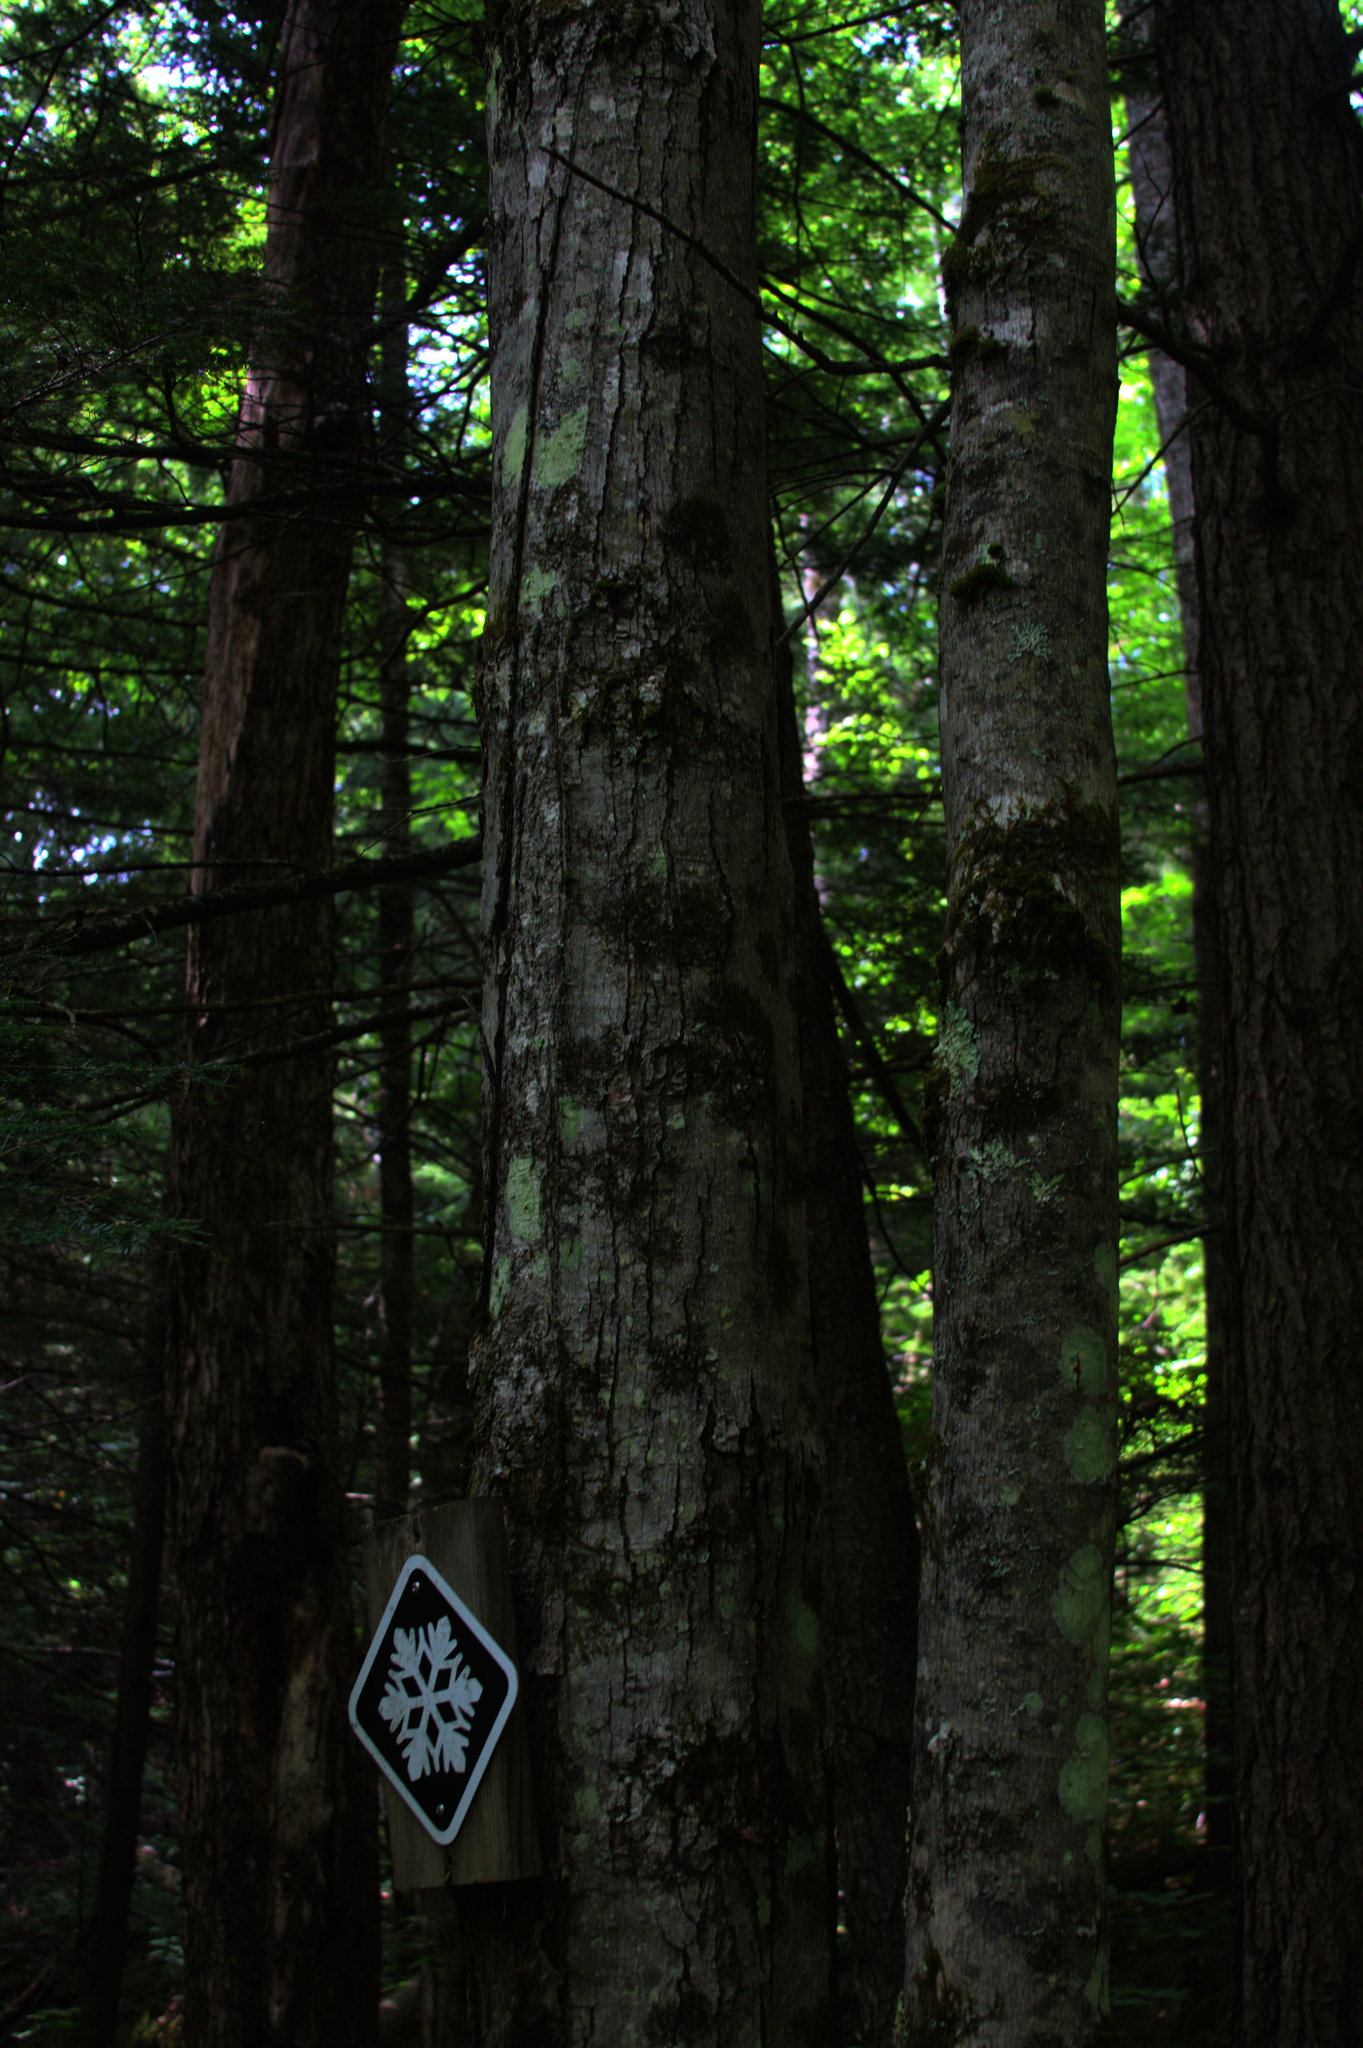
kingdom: Plantae
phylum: Tracheophyta
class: Magnoliopsida
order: Sapindales
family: Sapindaceae
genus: Acer
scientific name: Acer rubrum
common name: Red maple
